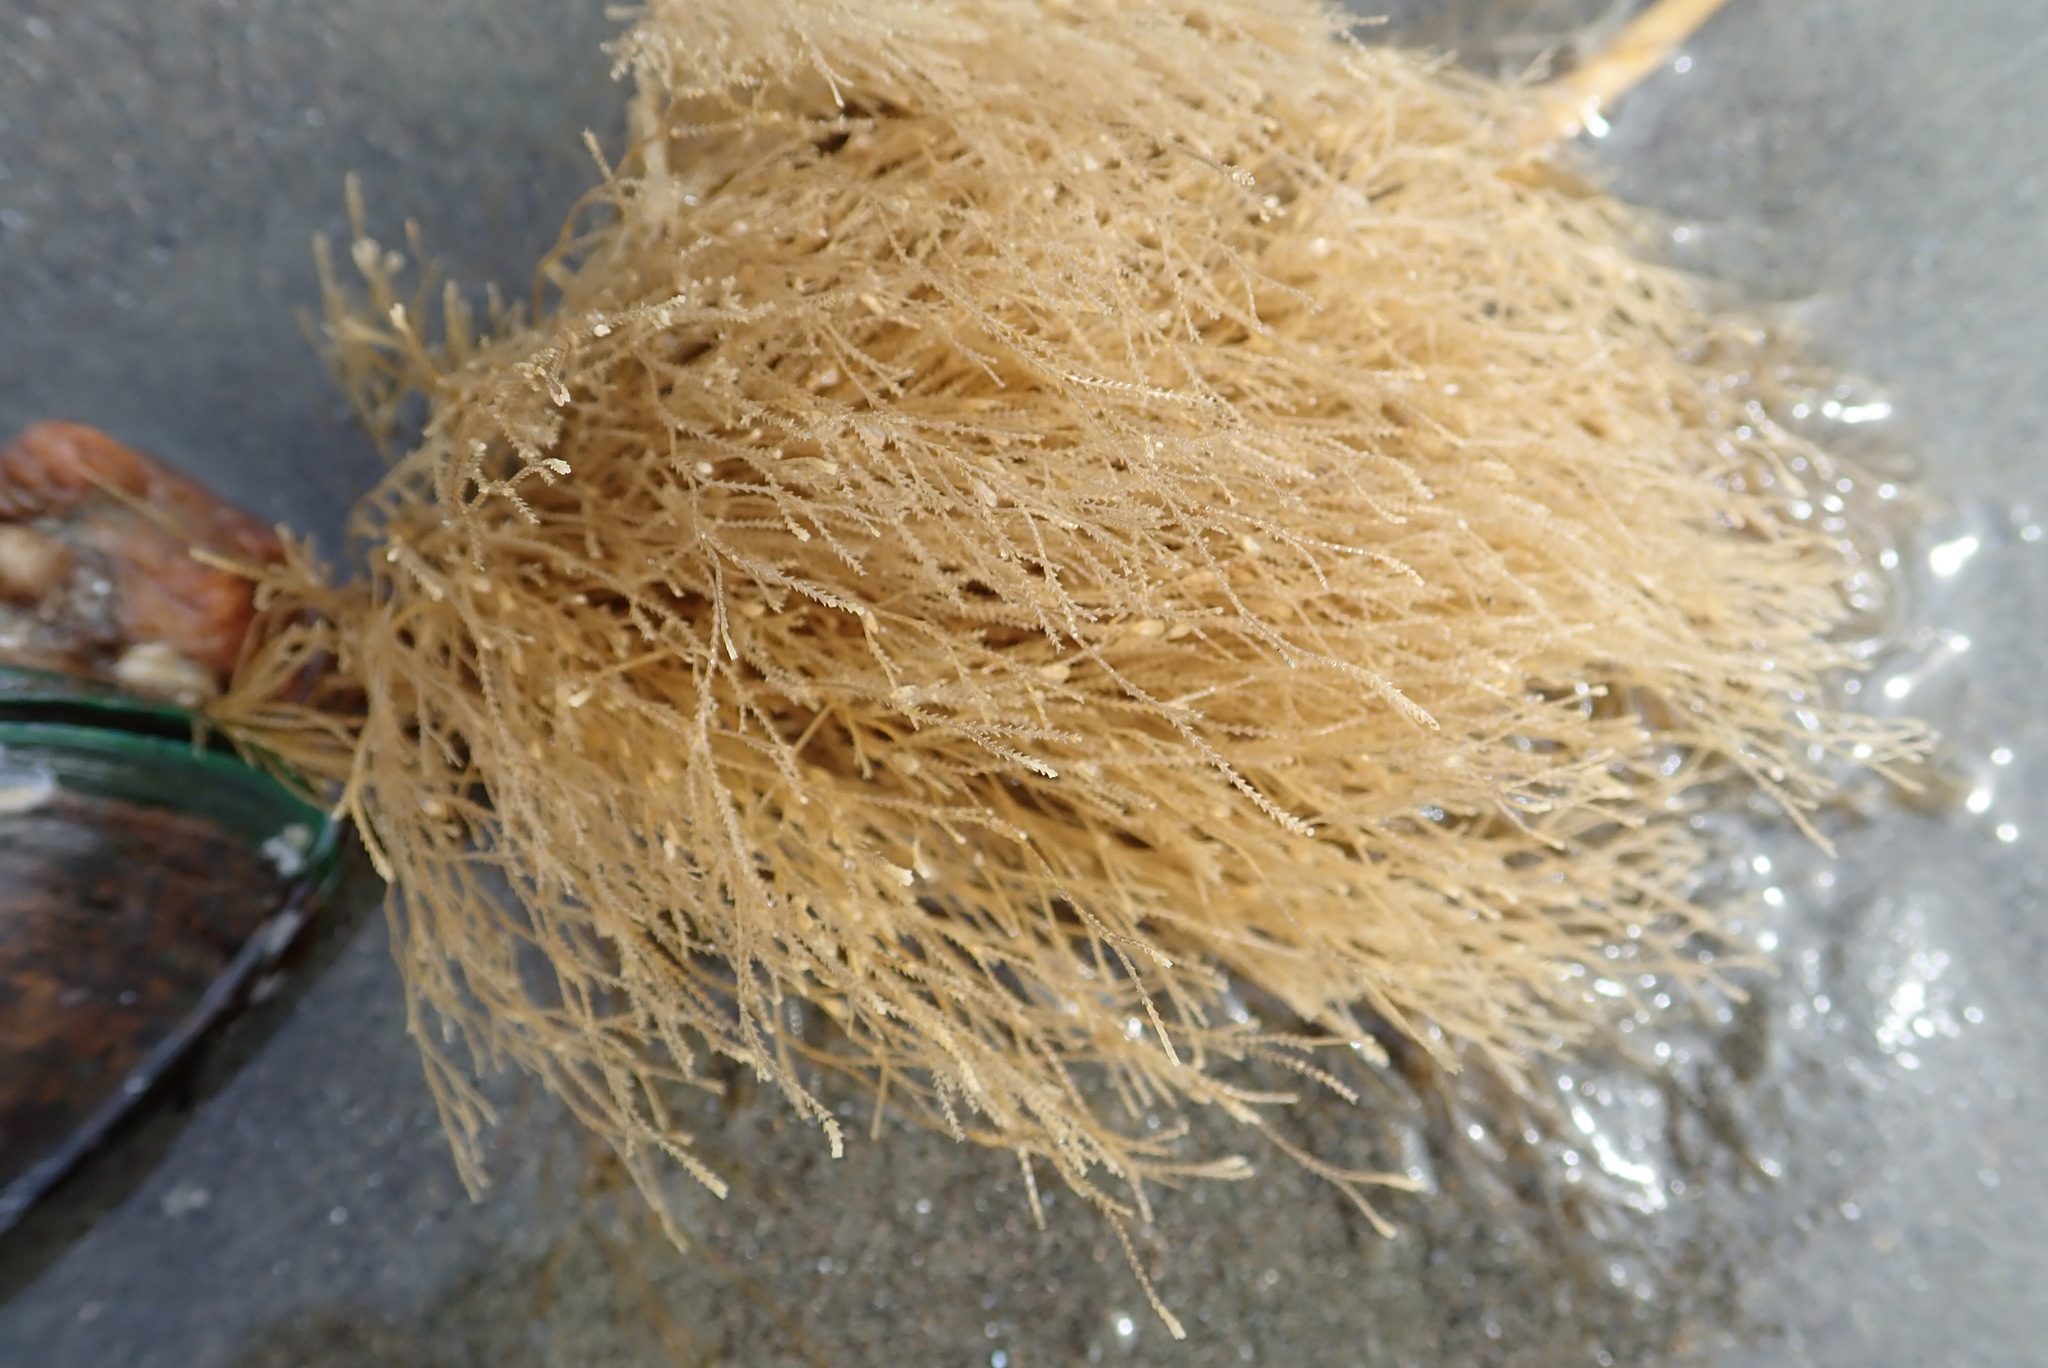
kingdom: Animalia
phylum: Cnidaria
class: Hydrozoa
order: Leptothecata
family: Sertulariidae
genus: Amphisbetia
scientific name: Amphisbetia bispinosa
